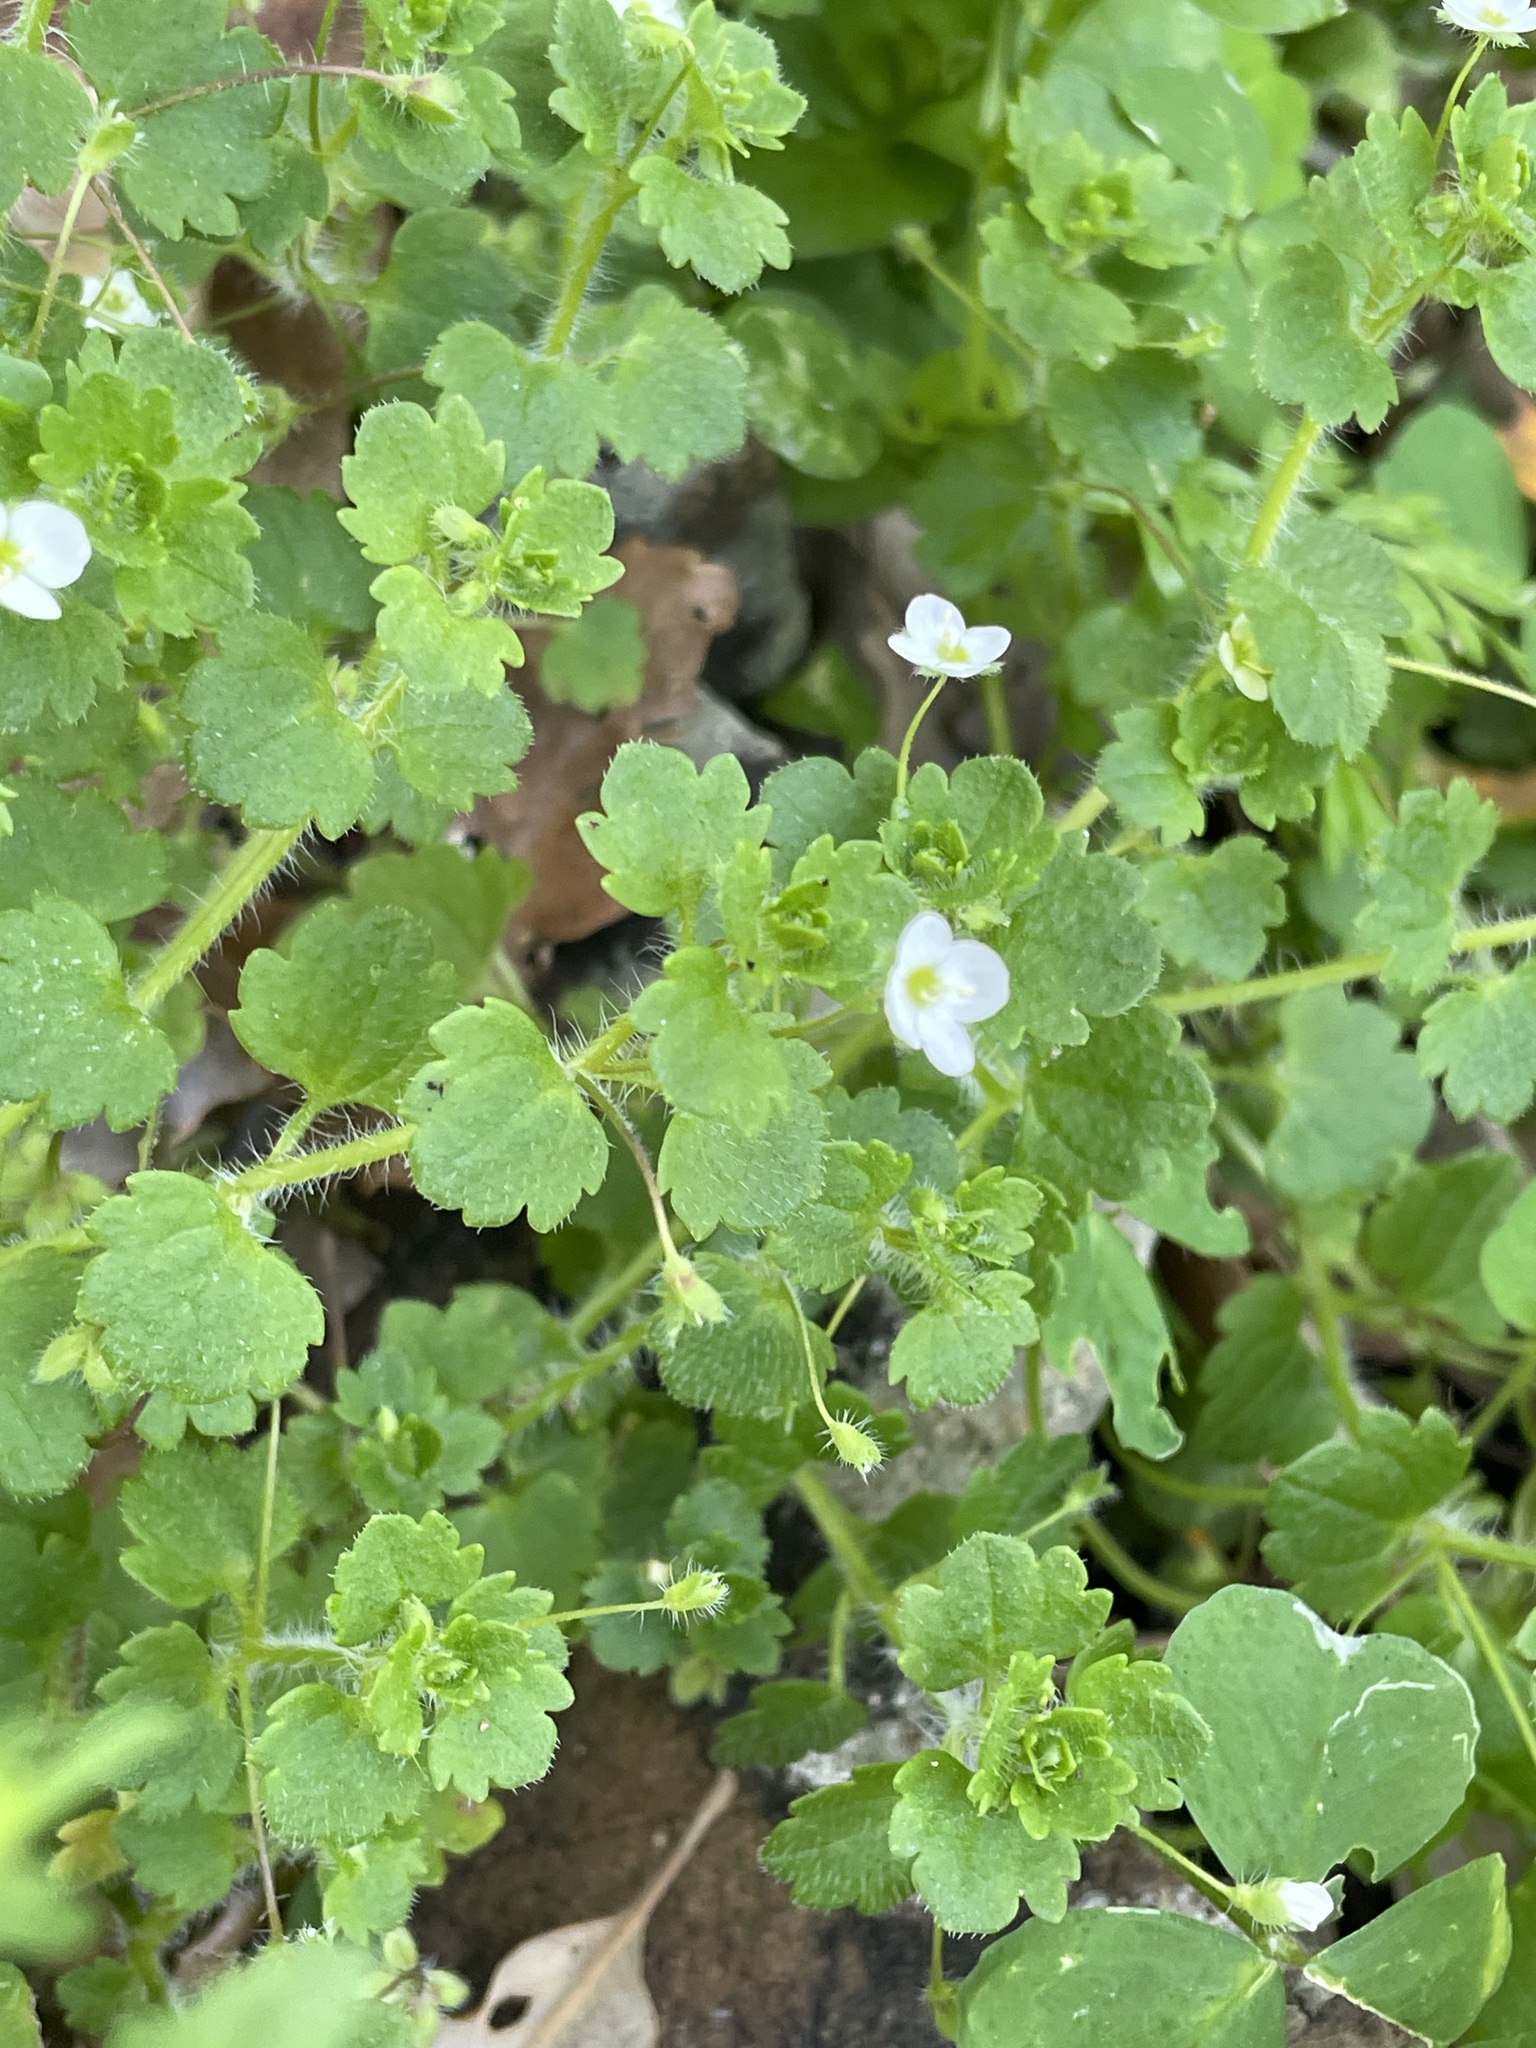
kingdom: Plantae
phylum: Tracheophyta
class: Magnoliopsida
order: Lamiales
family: Plantaginaceae
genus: Veronica
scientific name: Veronica cymbalaria
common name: Pale speedwell
